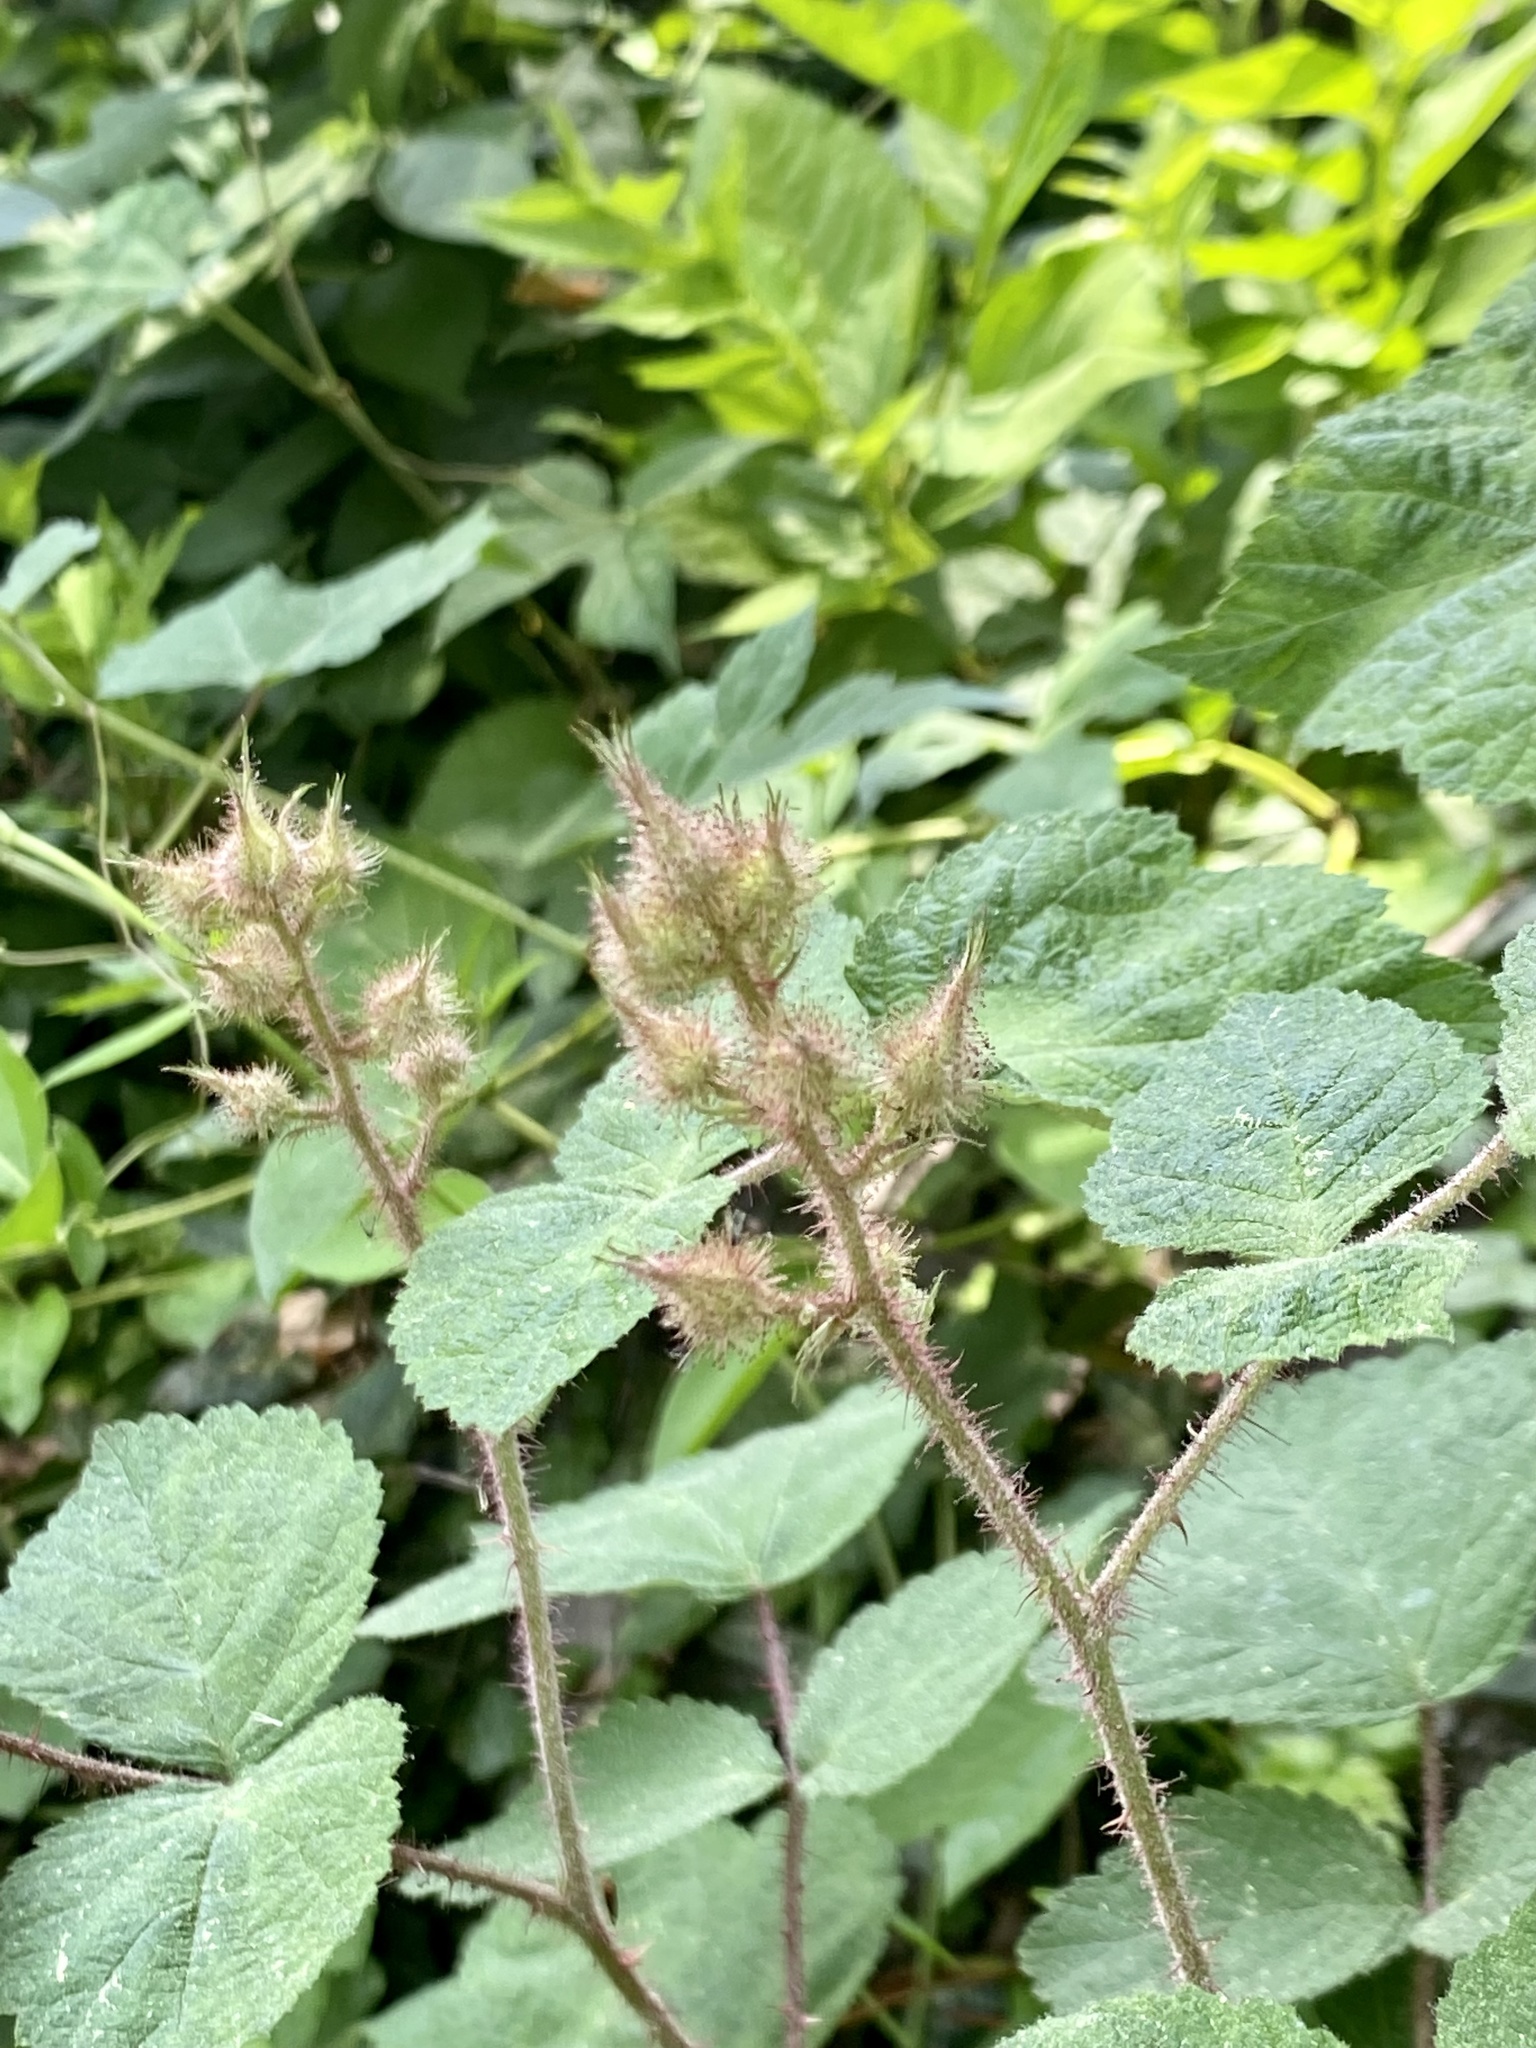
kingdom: Plantae
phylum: Tracheophyta
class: Magnoliopsida
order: Rosales
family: Rosaceae
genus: Rubus
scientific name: Rubus phoenicolasius
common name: Japanese wineberry
